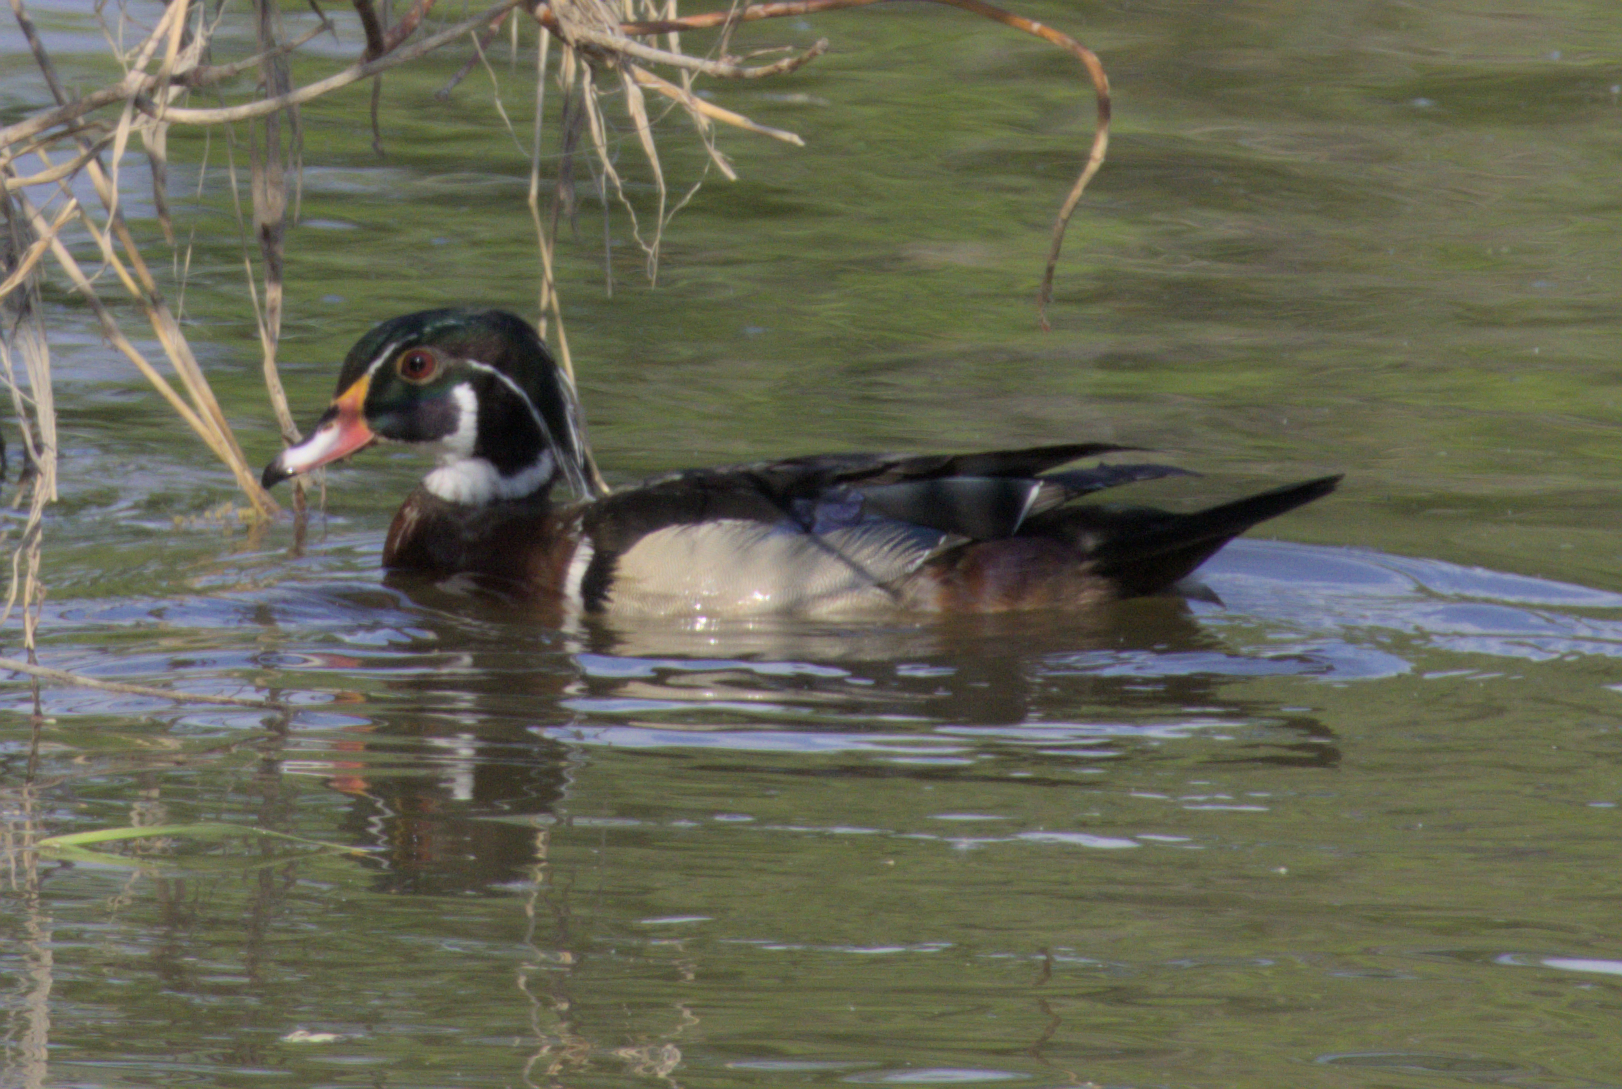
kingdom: Animalia
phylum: Chordata
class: Aves
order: Anseriformes
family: Anatidae
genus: Aix
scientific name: Aix sponsa
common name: Wood duck
